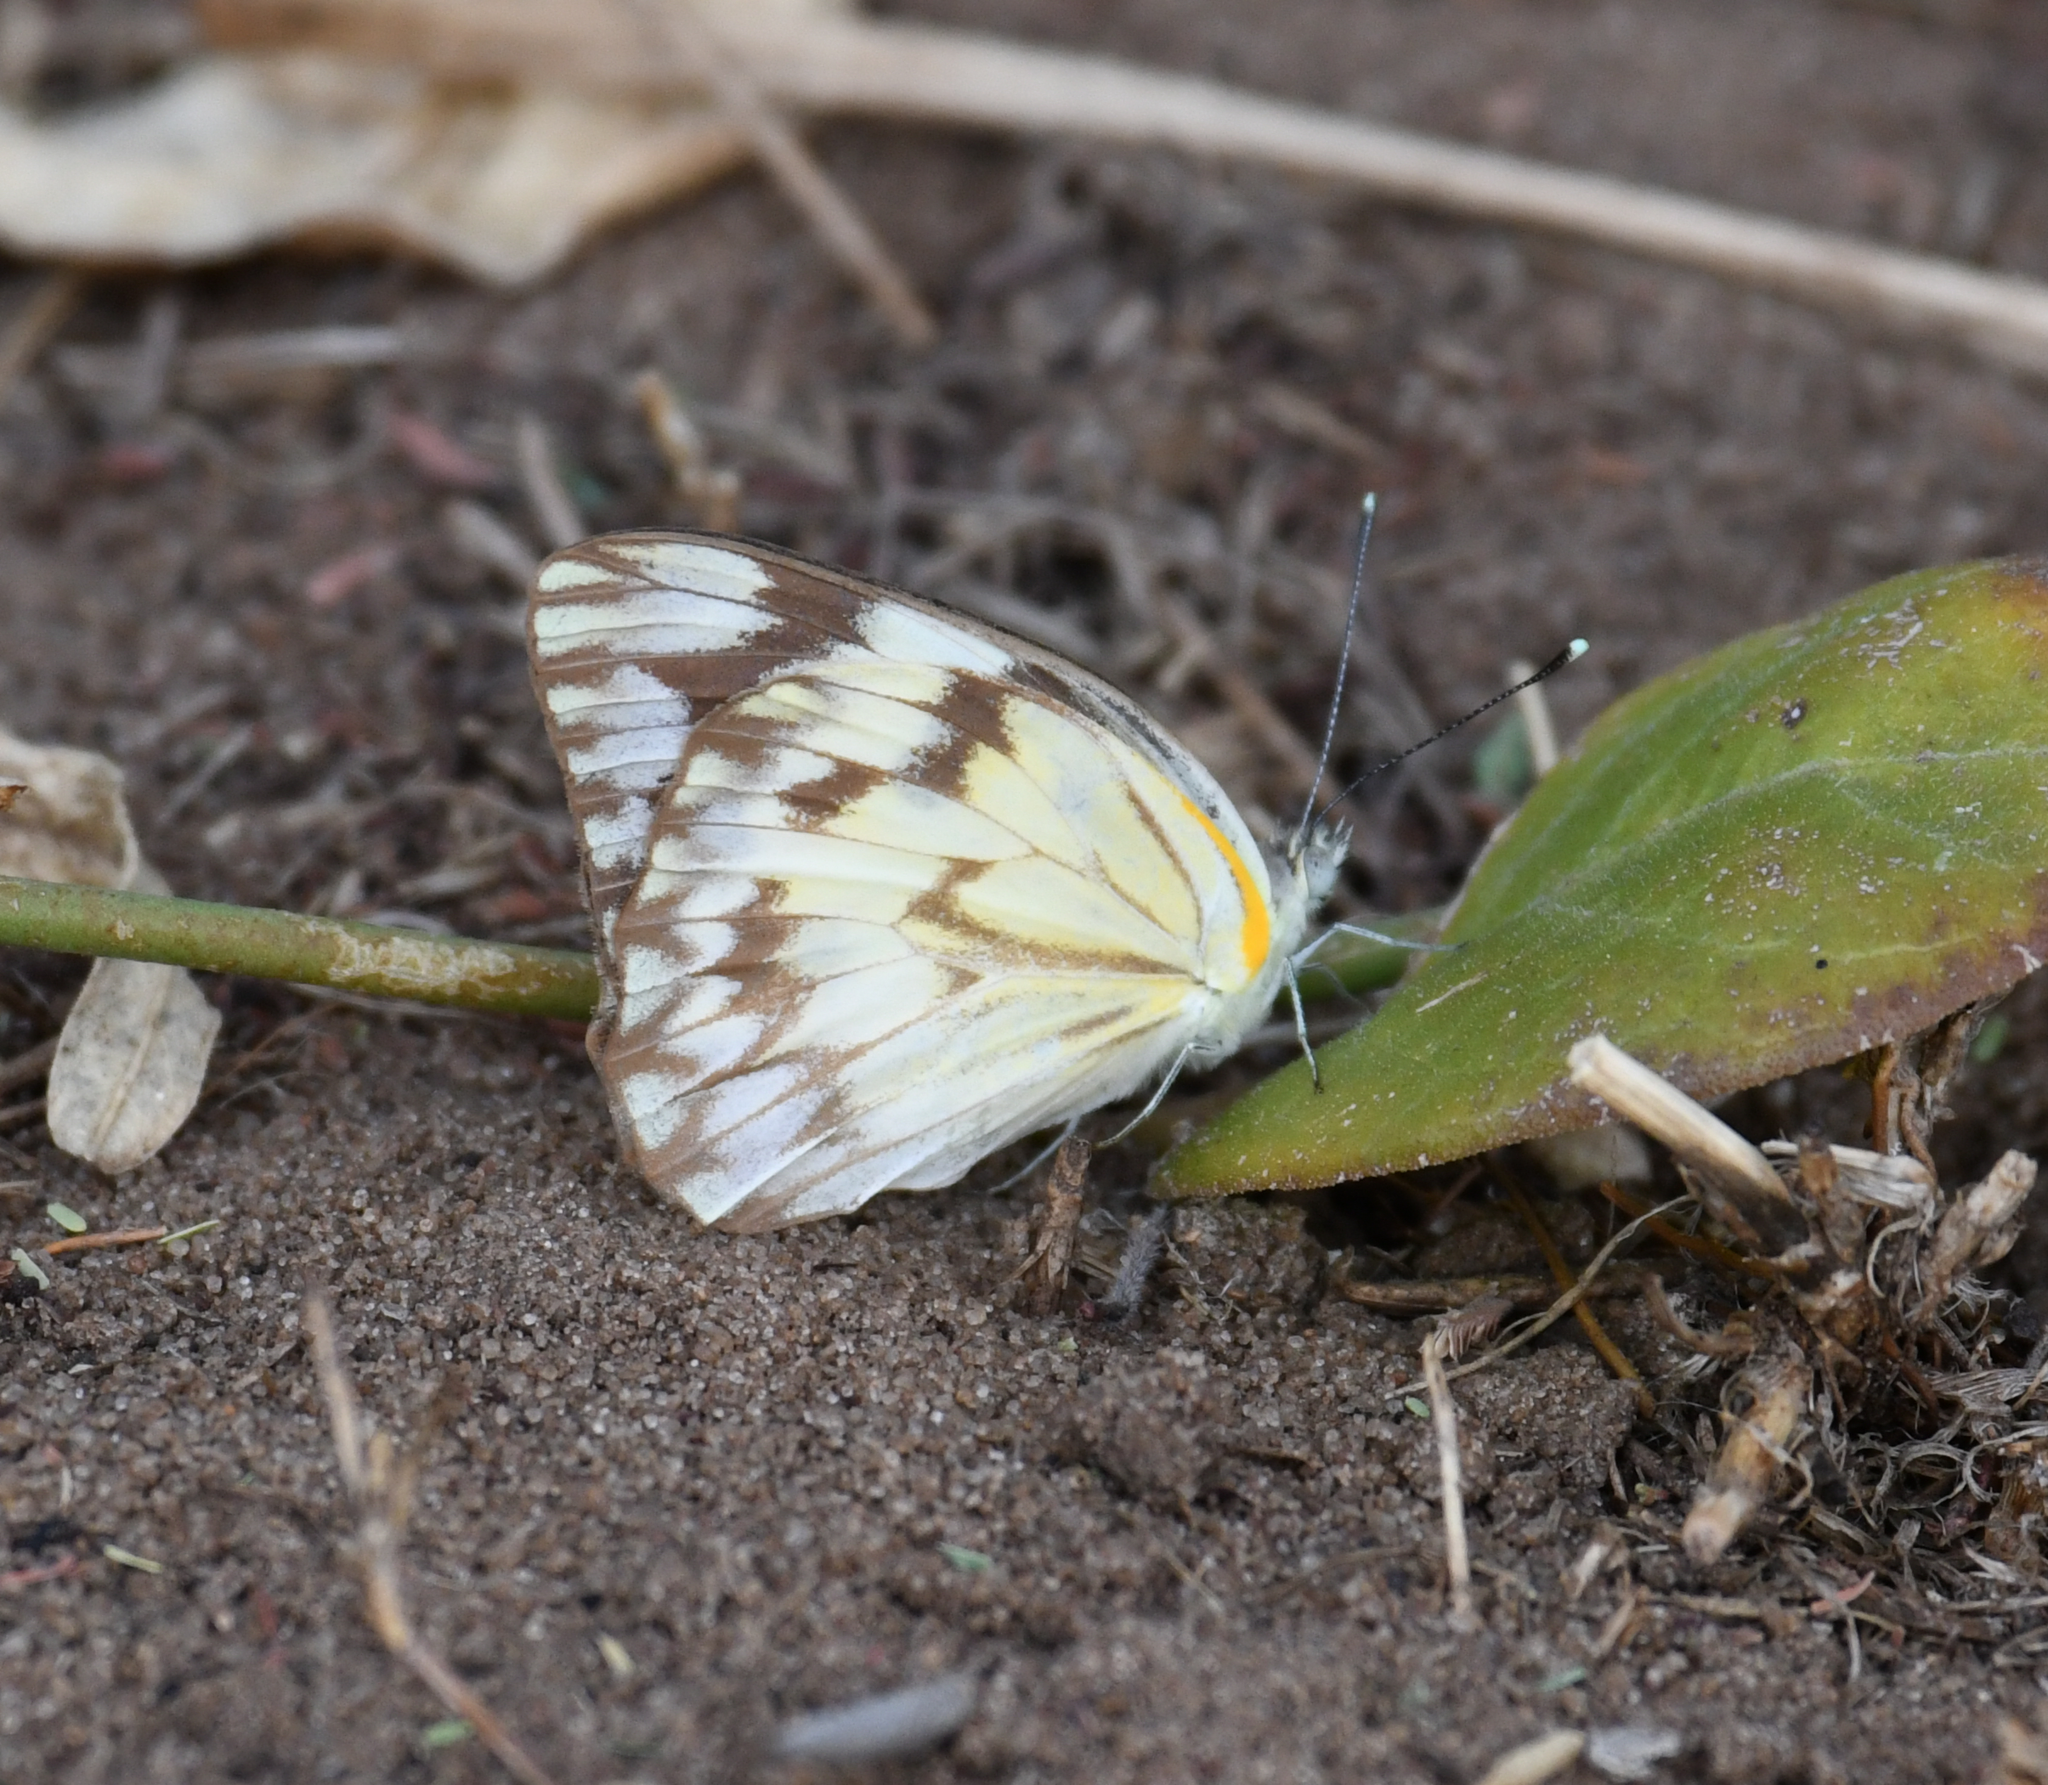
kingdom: Animalia
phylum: Arthropoda
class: Insecta
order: Lepidoptera
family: Pieridae
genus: Belenois
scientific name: Belenois gidica
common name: Pointed caper white
